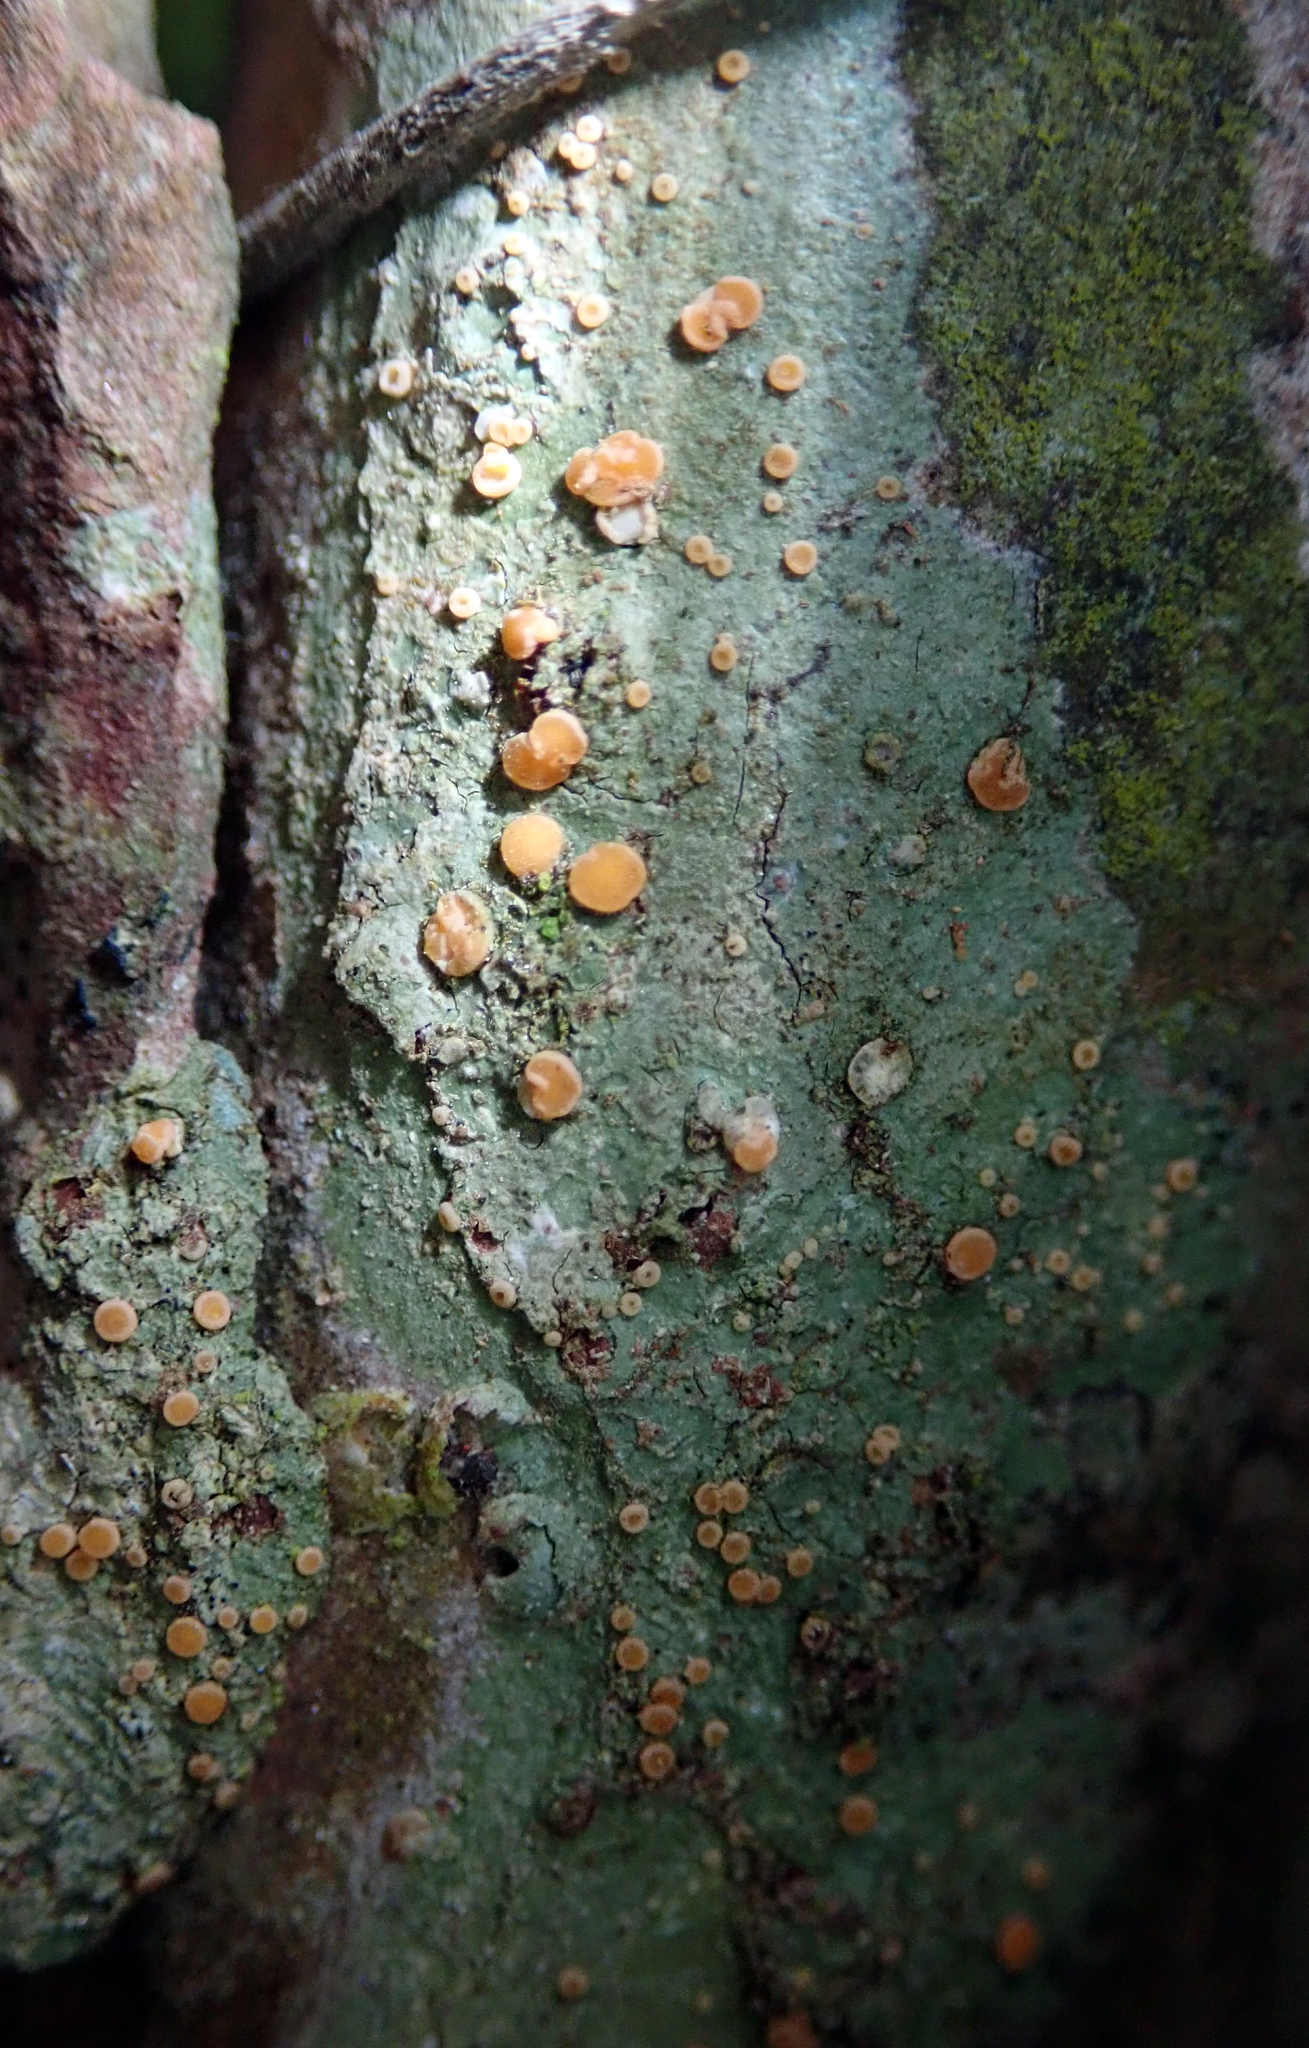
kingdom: Fungi
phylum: Ascomycota
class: Lecanoromycetes
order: Ostropales
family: Coenogoniaceae
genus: Coenogonium
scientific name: Coenogonium luteum
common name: Orange dimple lichen
